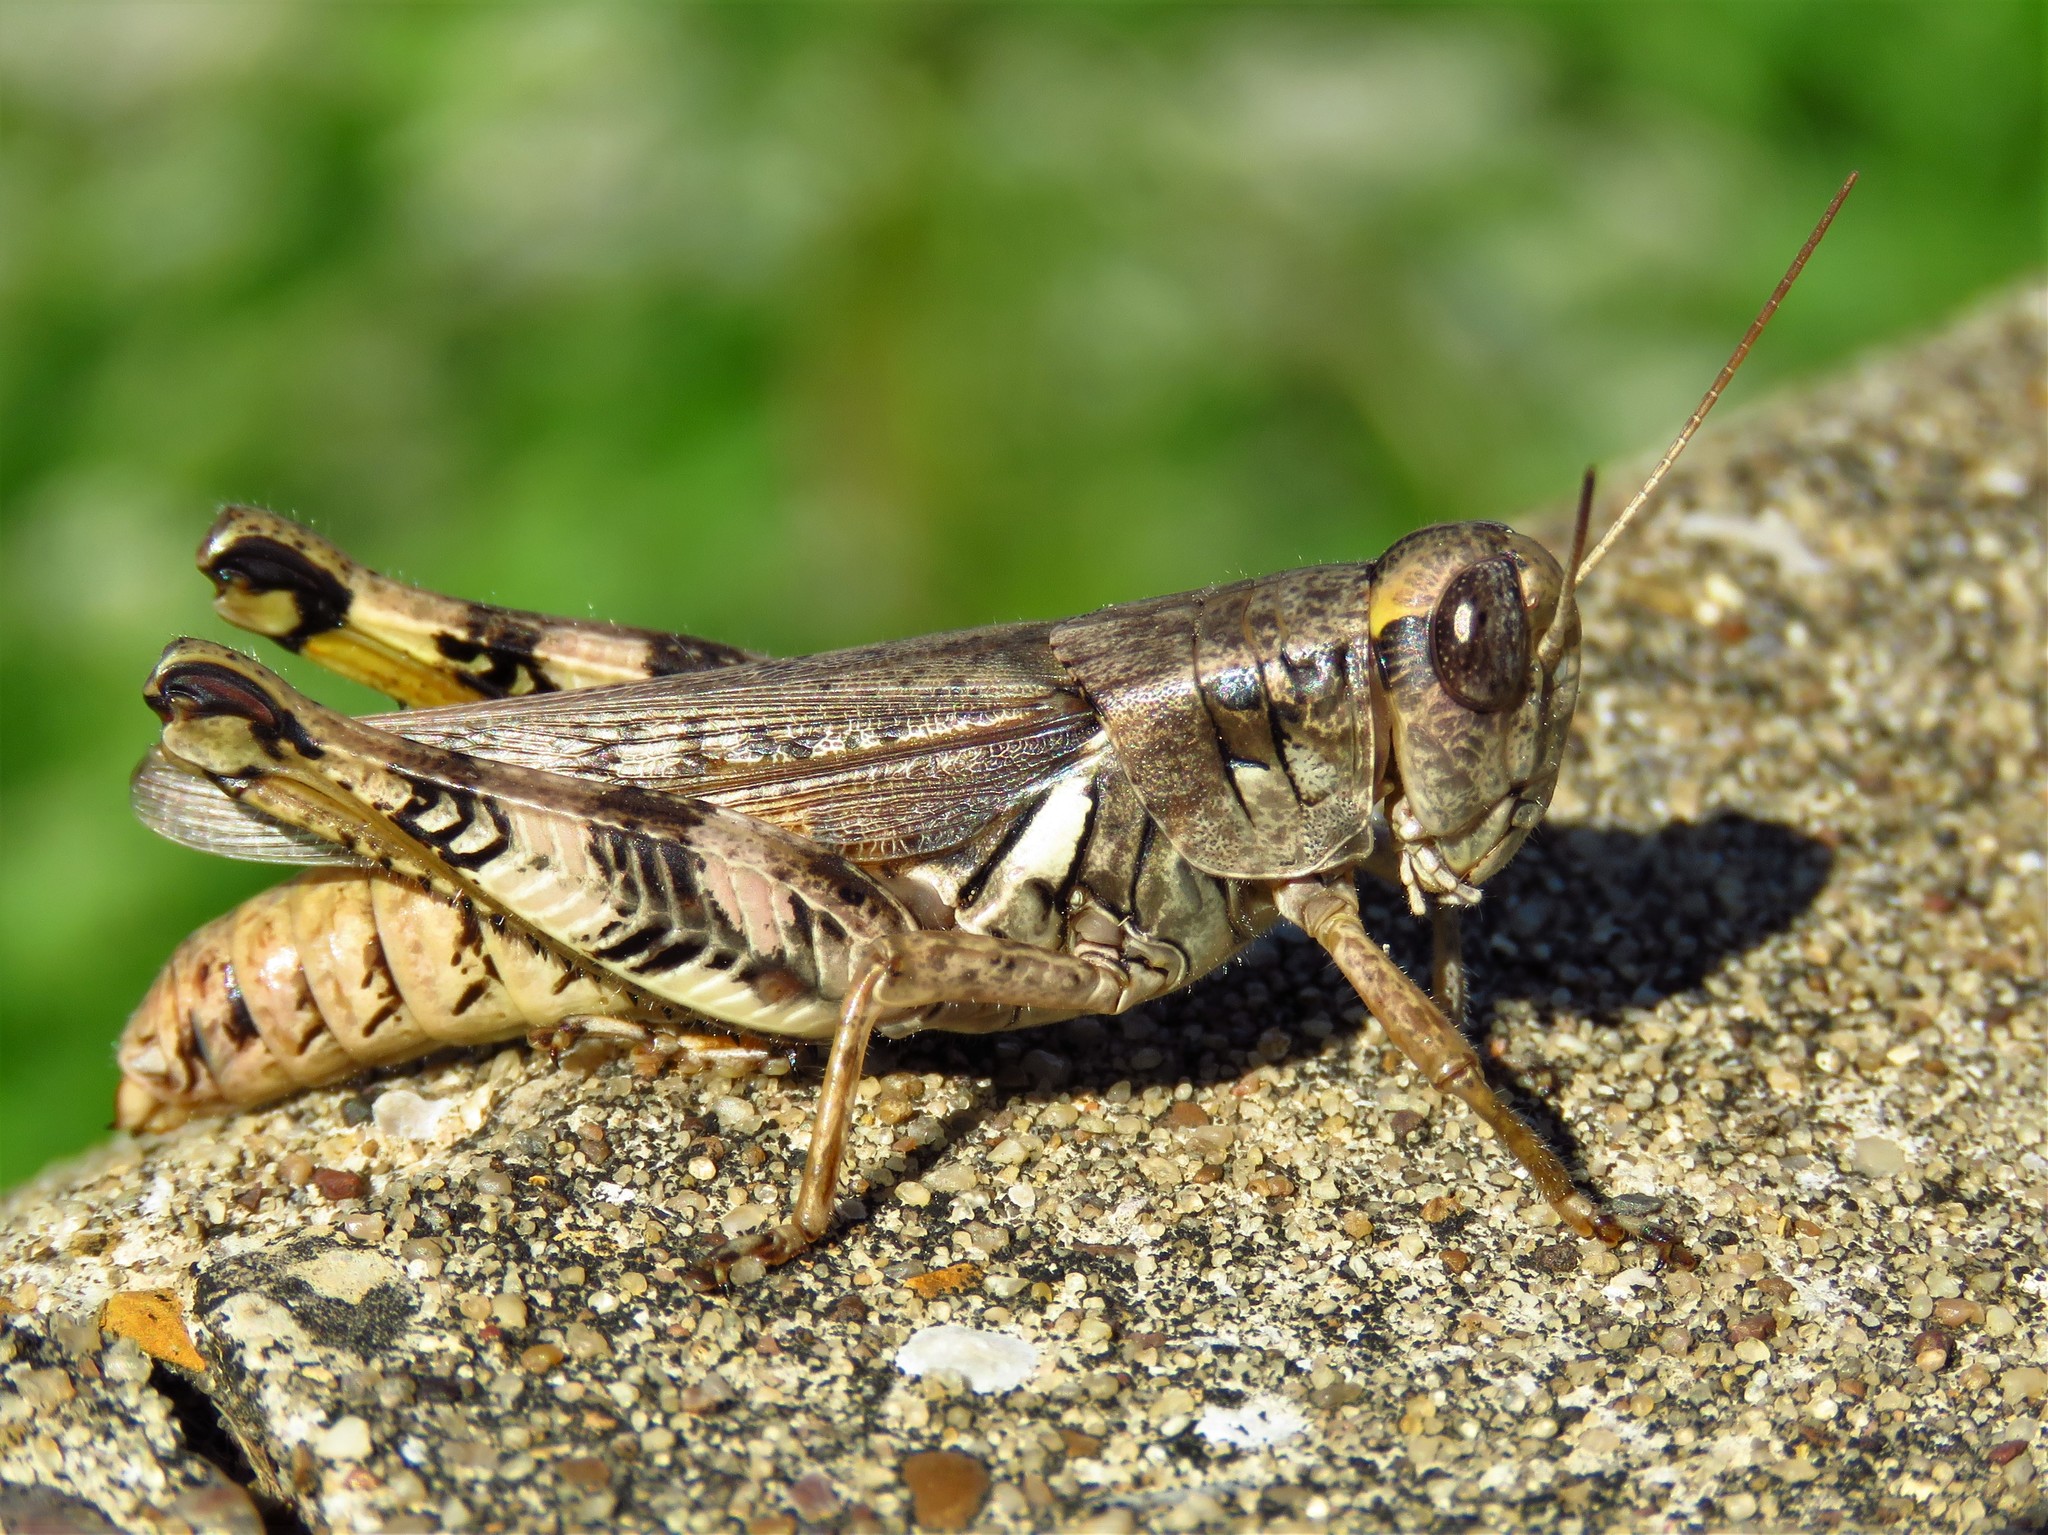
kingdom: Animalia
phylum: Arthropoda
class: Insecta
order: Orthoptera
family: Acrididae
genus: Melanoplus
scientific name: Melanoplus ponderosus
